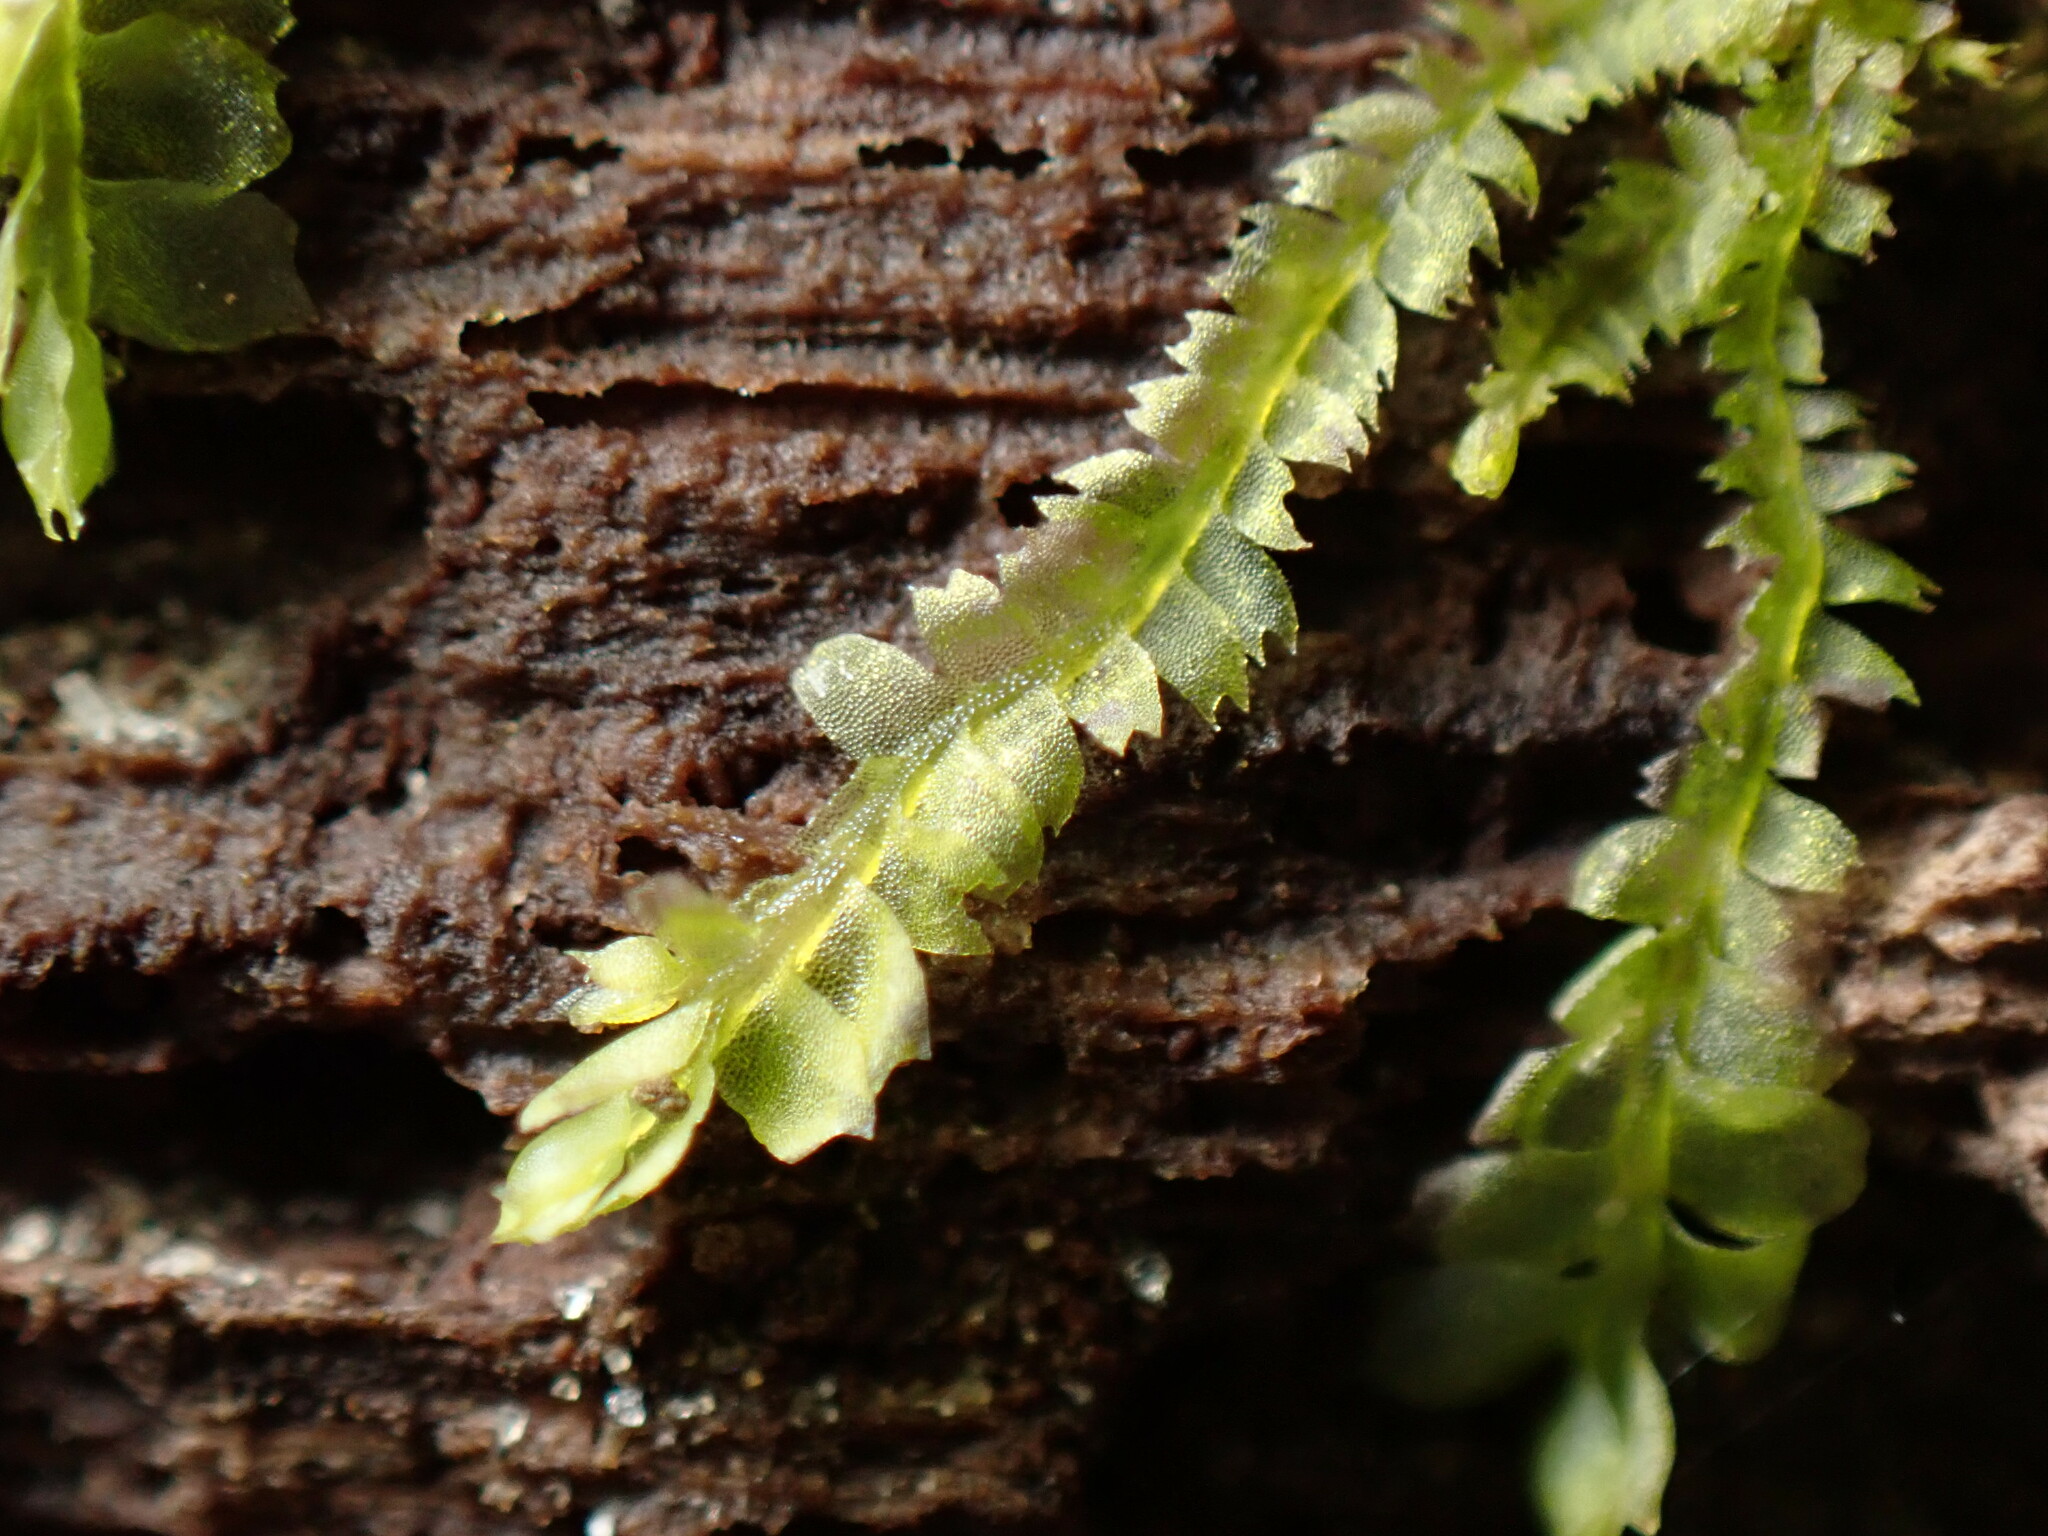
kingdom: Plantae
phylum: Marchantiophyta
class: Jungermanniopsida
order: Jungermanniales
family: Lophocoleaceae
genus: Lophocolea
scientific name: Lophocolea heterophylla
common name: Variable-leaved crestwort
